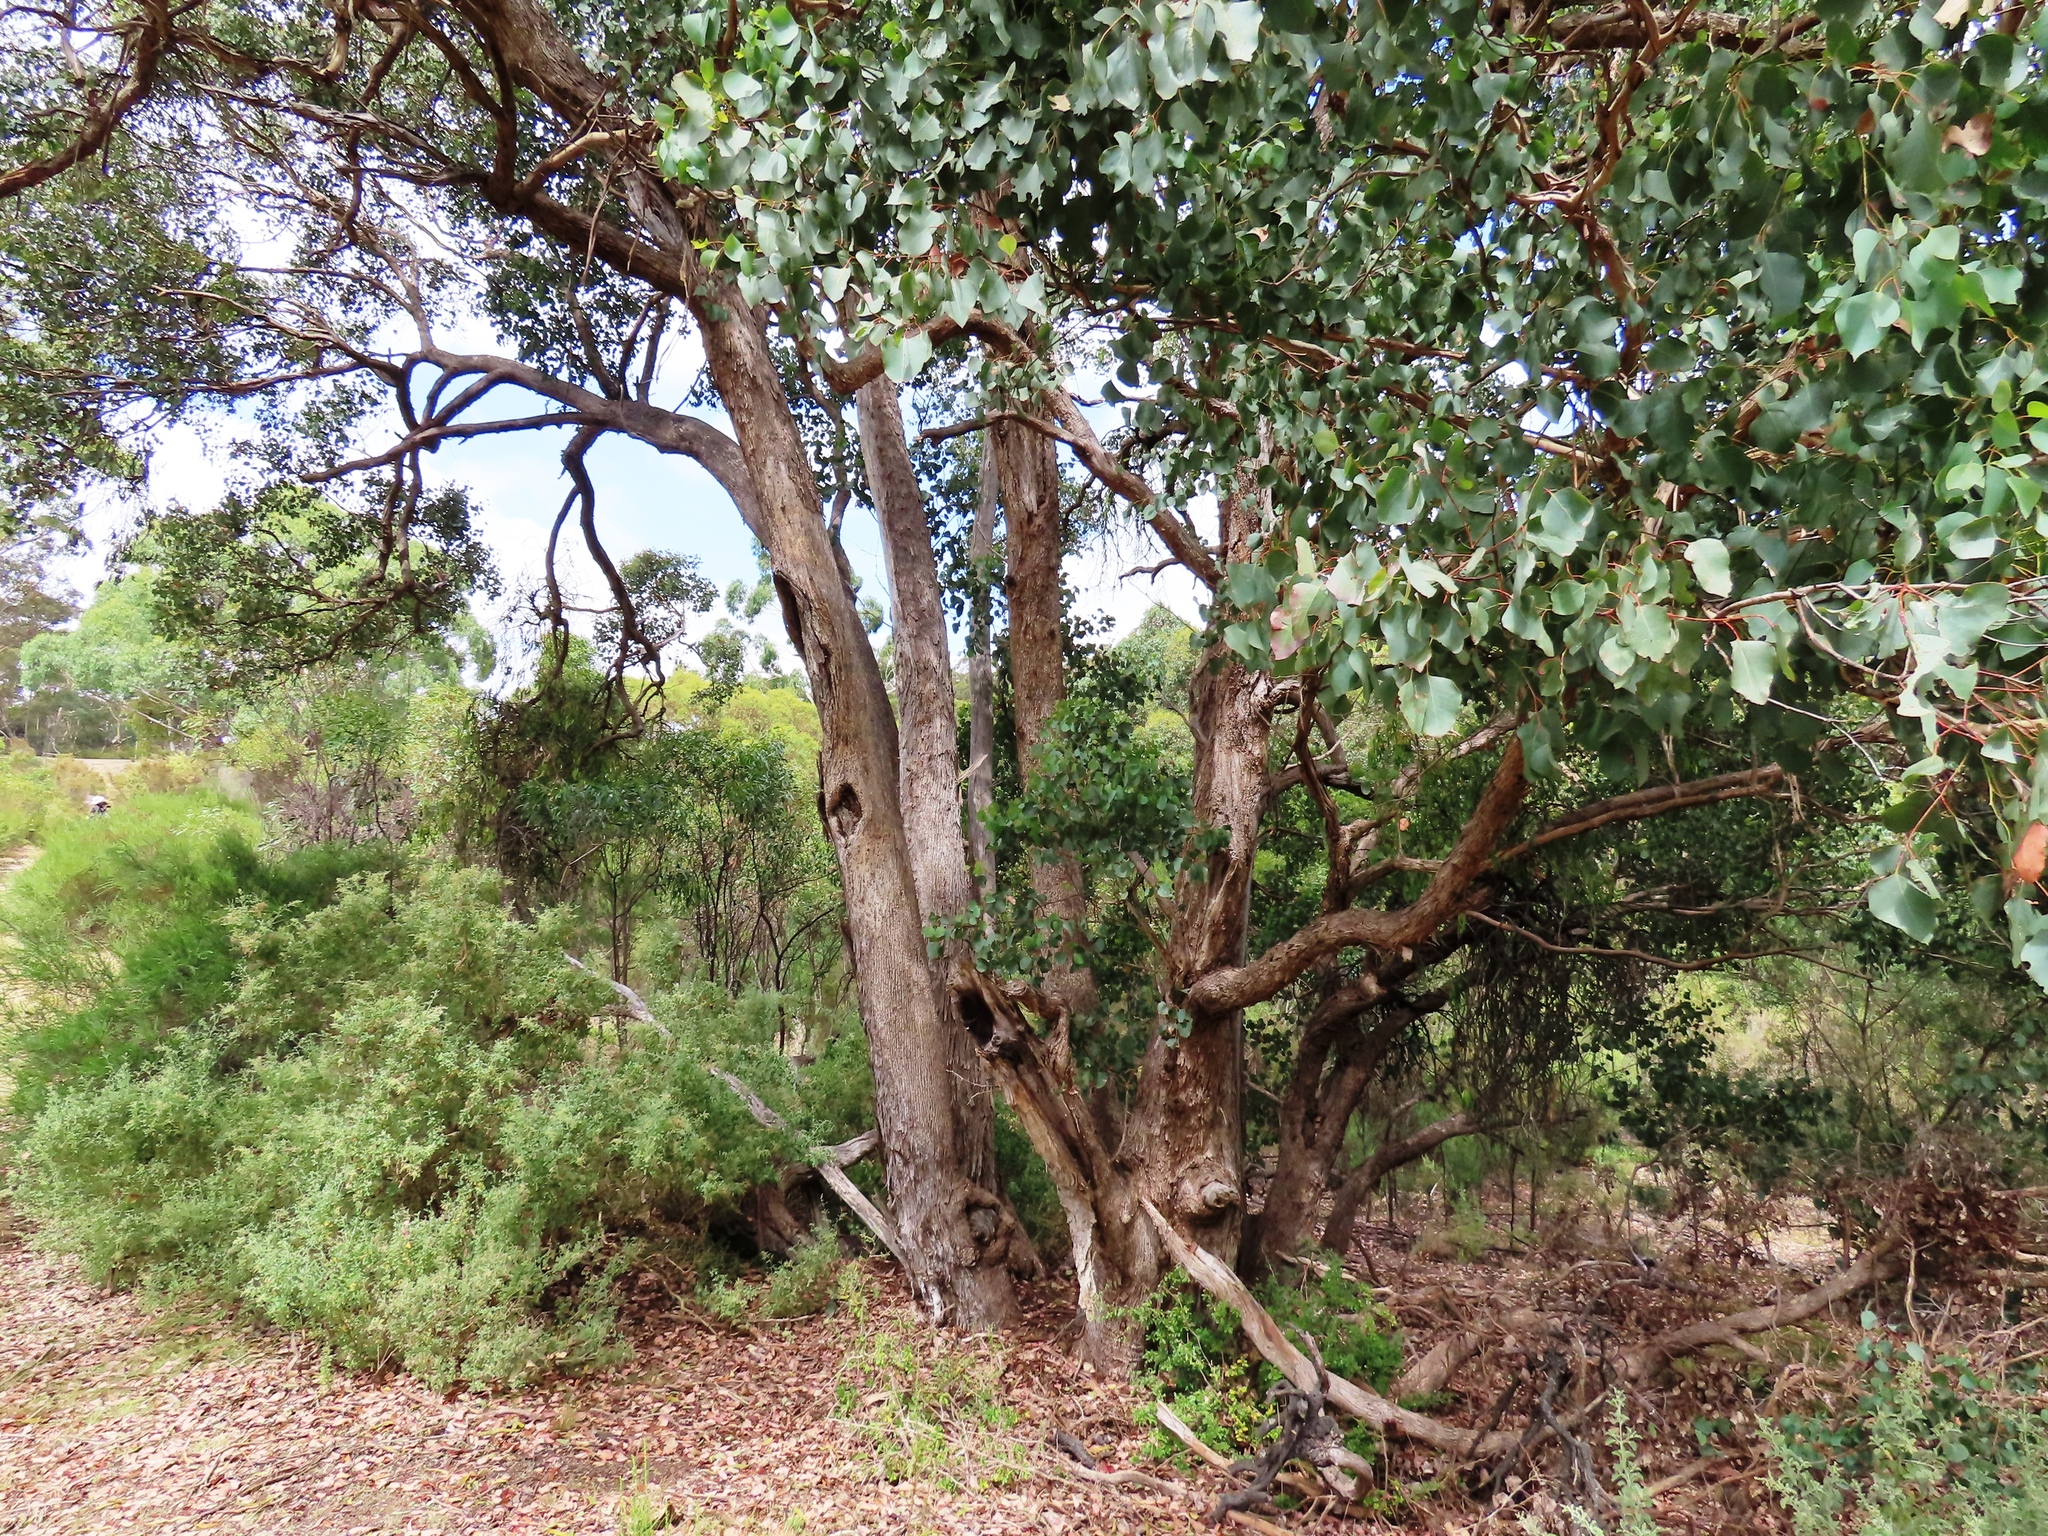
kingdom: Plantae
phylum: Tracheophyta
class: Magnoliopsida
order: Myrtales
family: Myrtaceae
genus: Eucalyptus
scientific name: Eucalyptus baueriana
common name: Round-leaf-box
